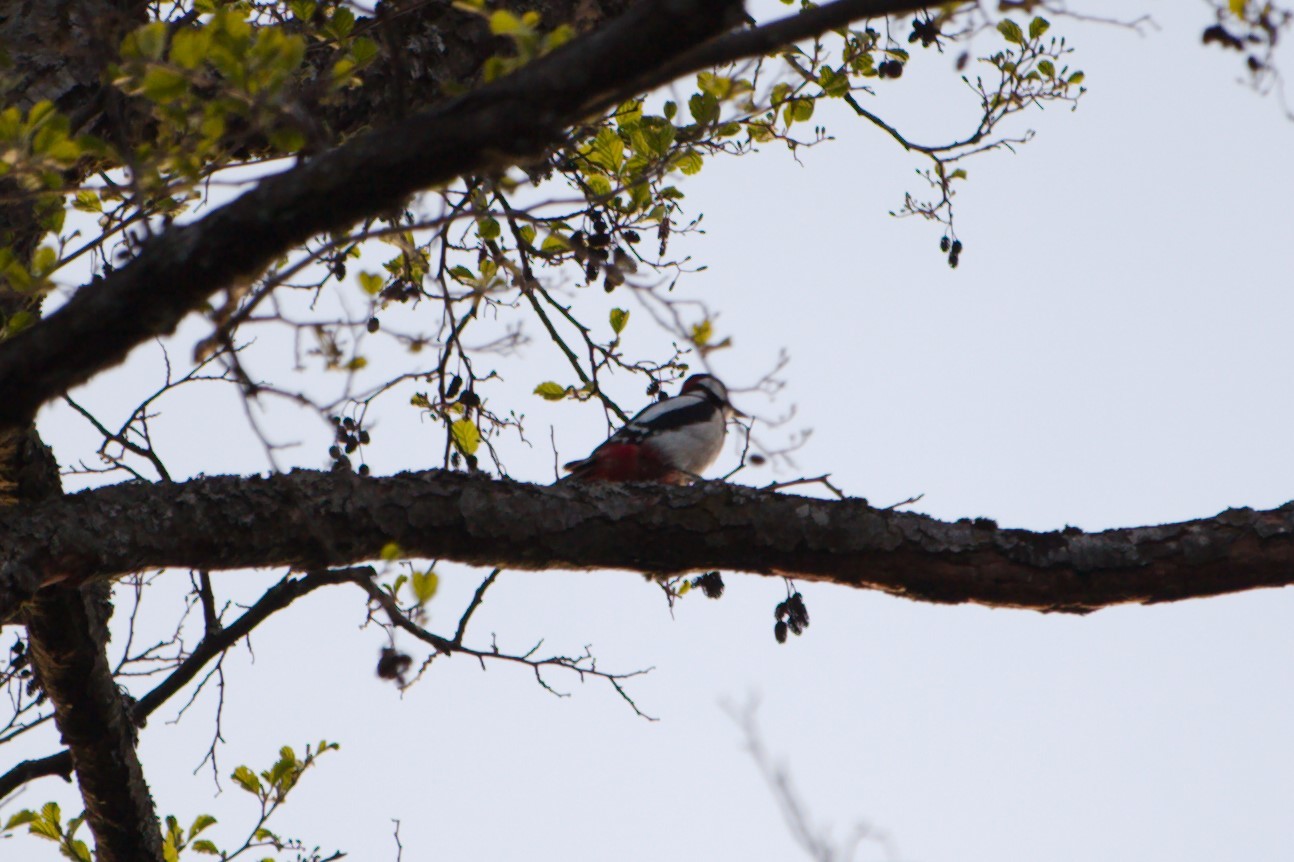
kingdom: Animalia
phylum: Chordata
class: Aves
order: Piciformes
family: Picidae
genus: Dendrocopos
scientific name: Dendrocopos major
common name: Great spotted woodpecker
